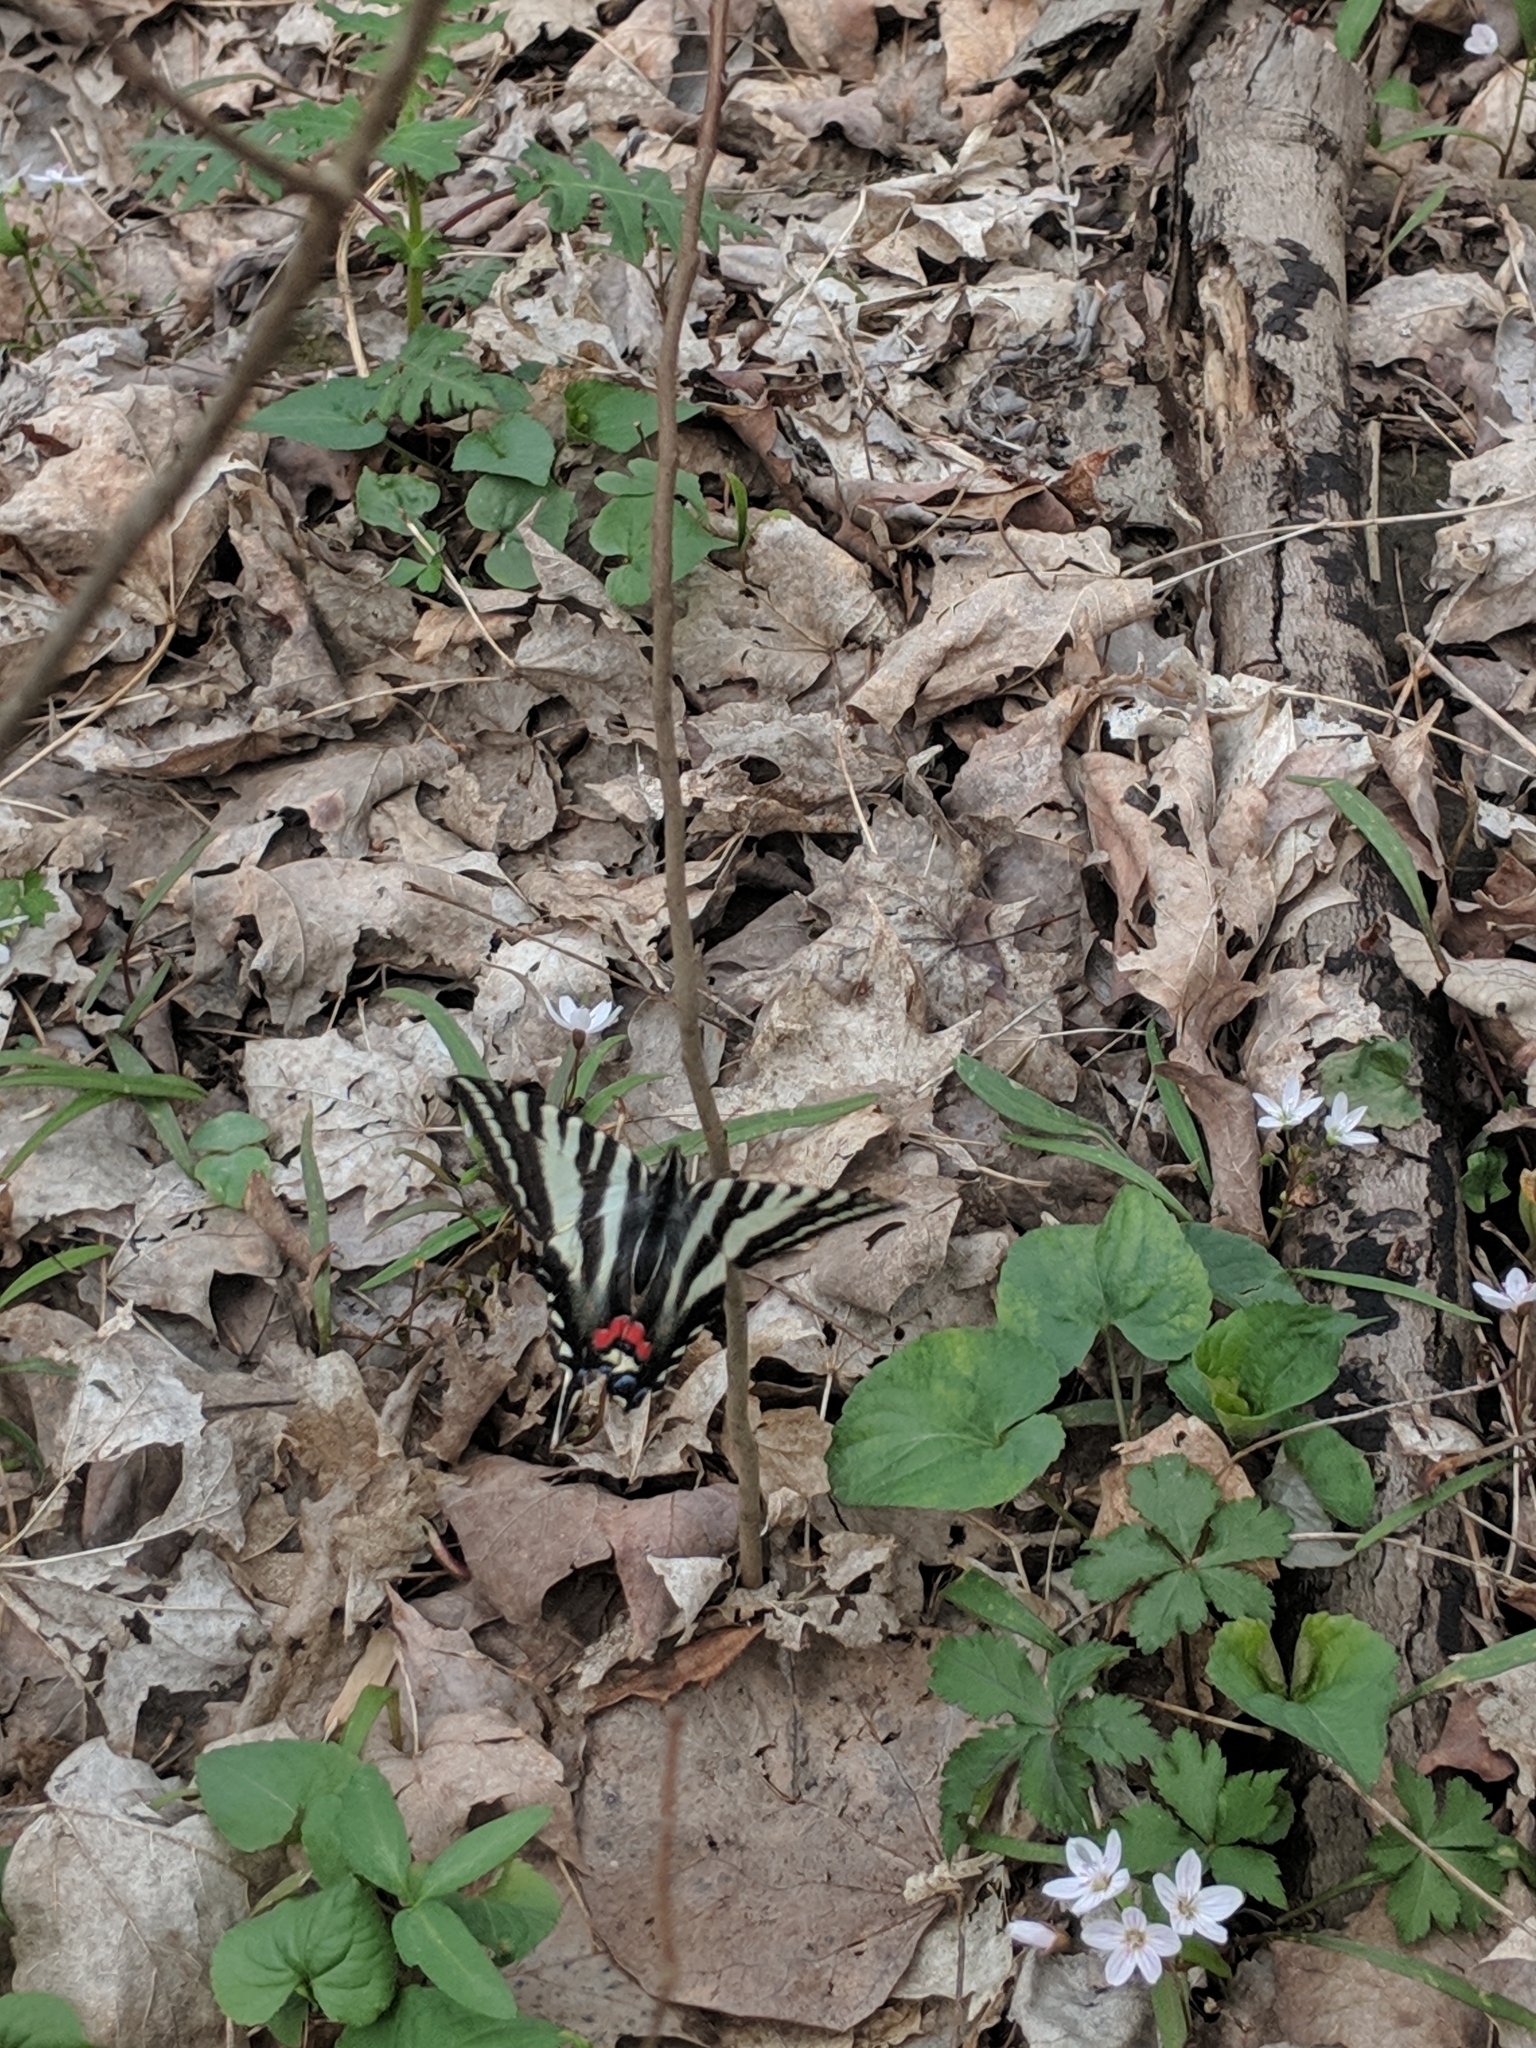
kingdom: Animalia
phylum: Arthropoda
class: Insecta
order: Lepidoptera
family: Papilionidae
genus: Protographium
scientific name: Protographium marcellus
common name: Zebra swallowtail
